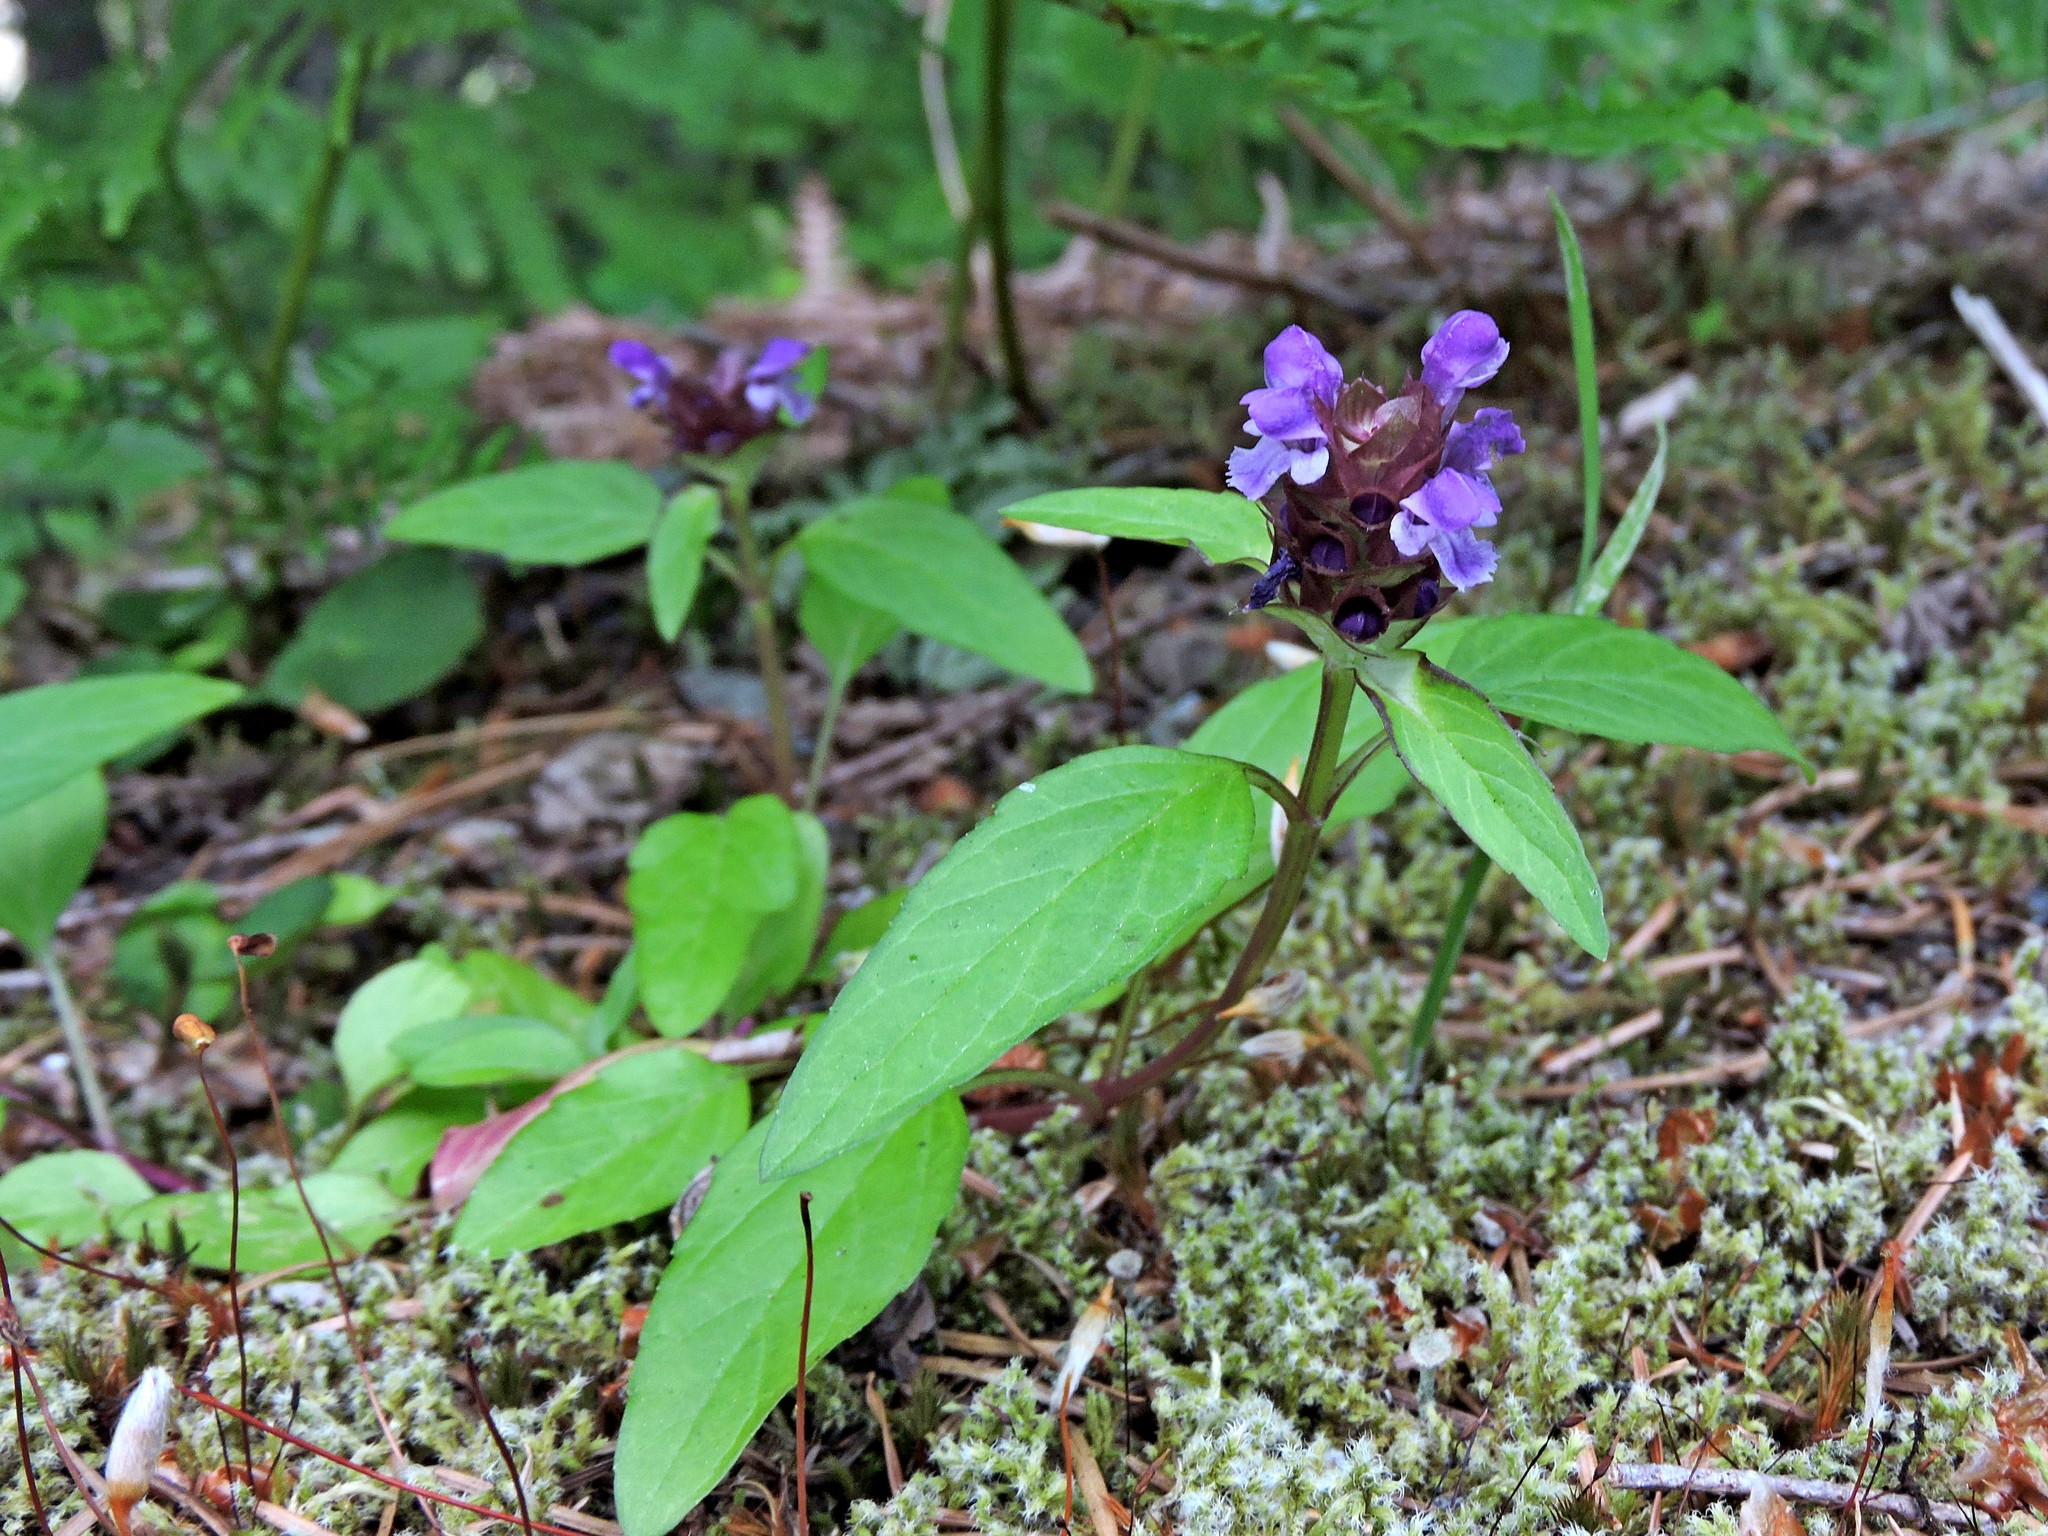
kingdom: Plantae
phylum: Tracheophyta
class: Magnoliopsida
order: Lamiales
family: Lamiaceae
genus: Prunella
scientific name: Prunella vulgaris
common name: Heal-all
